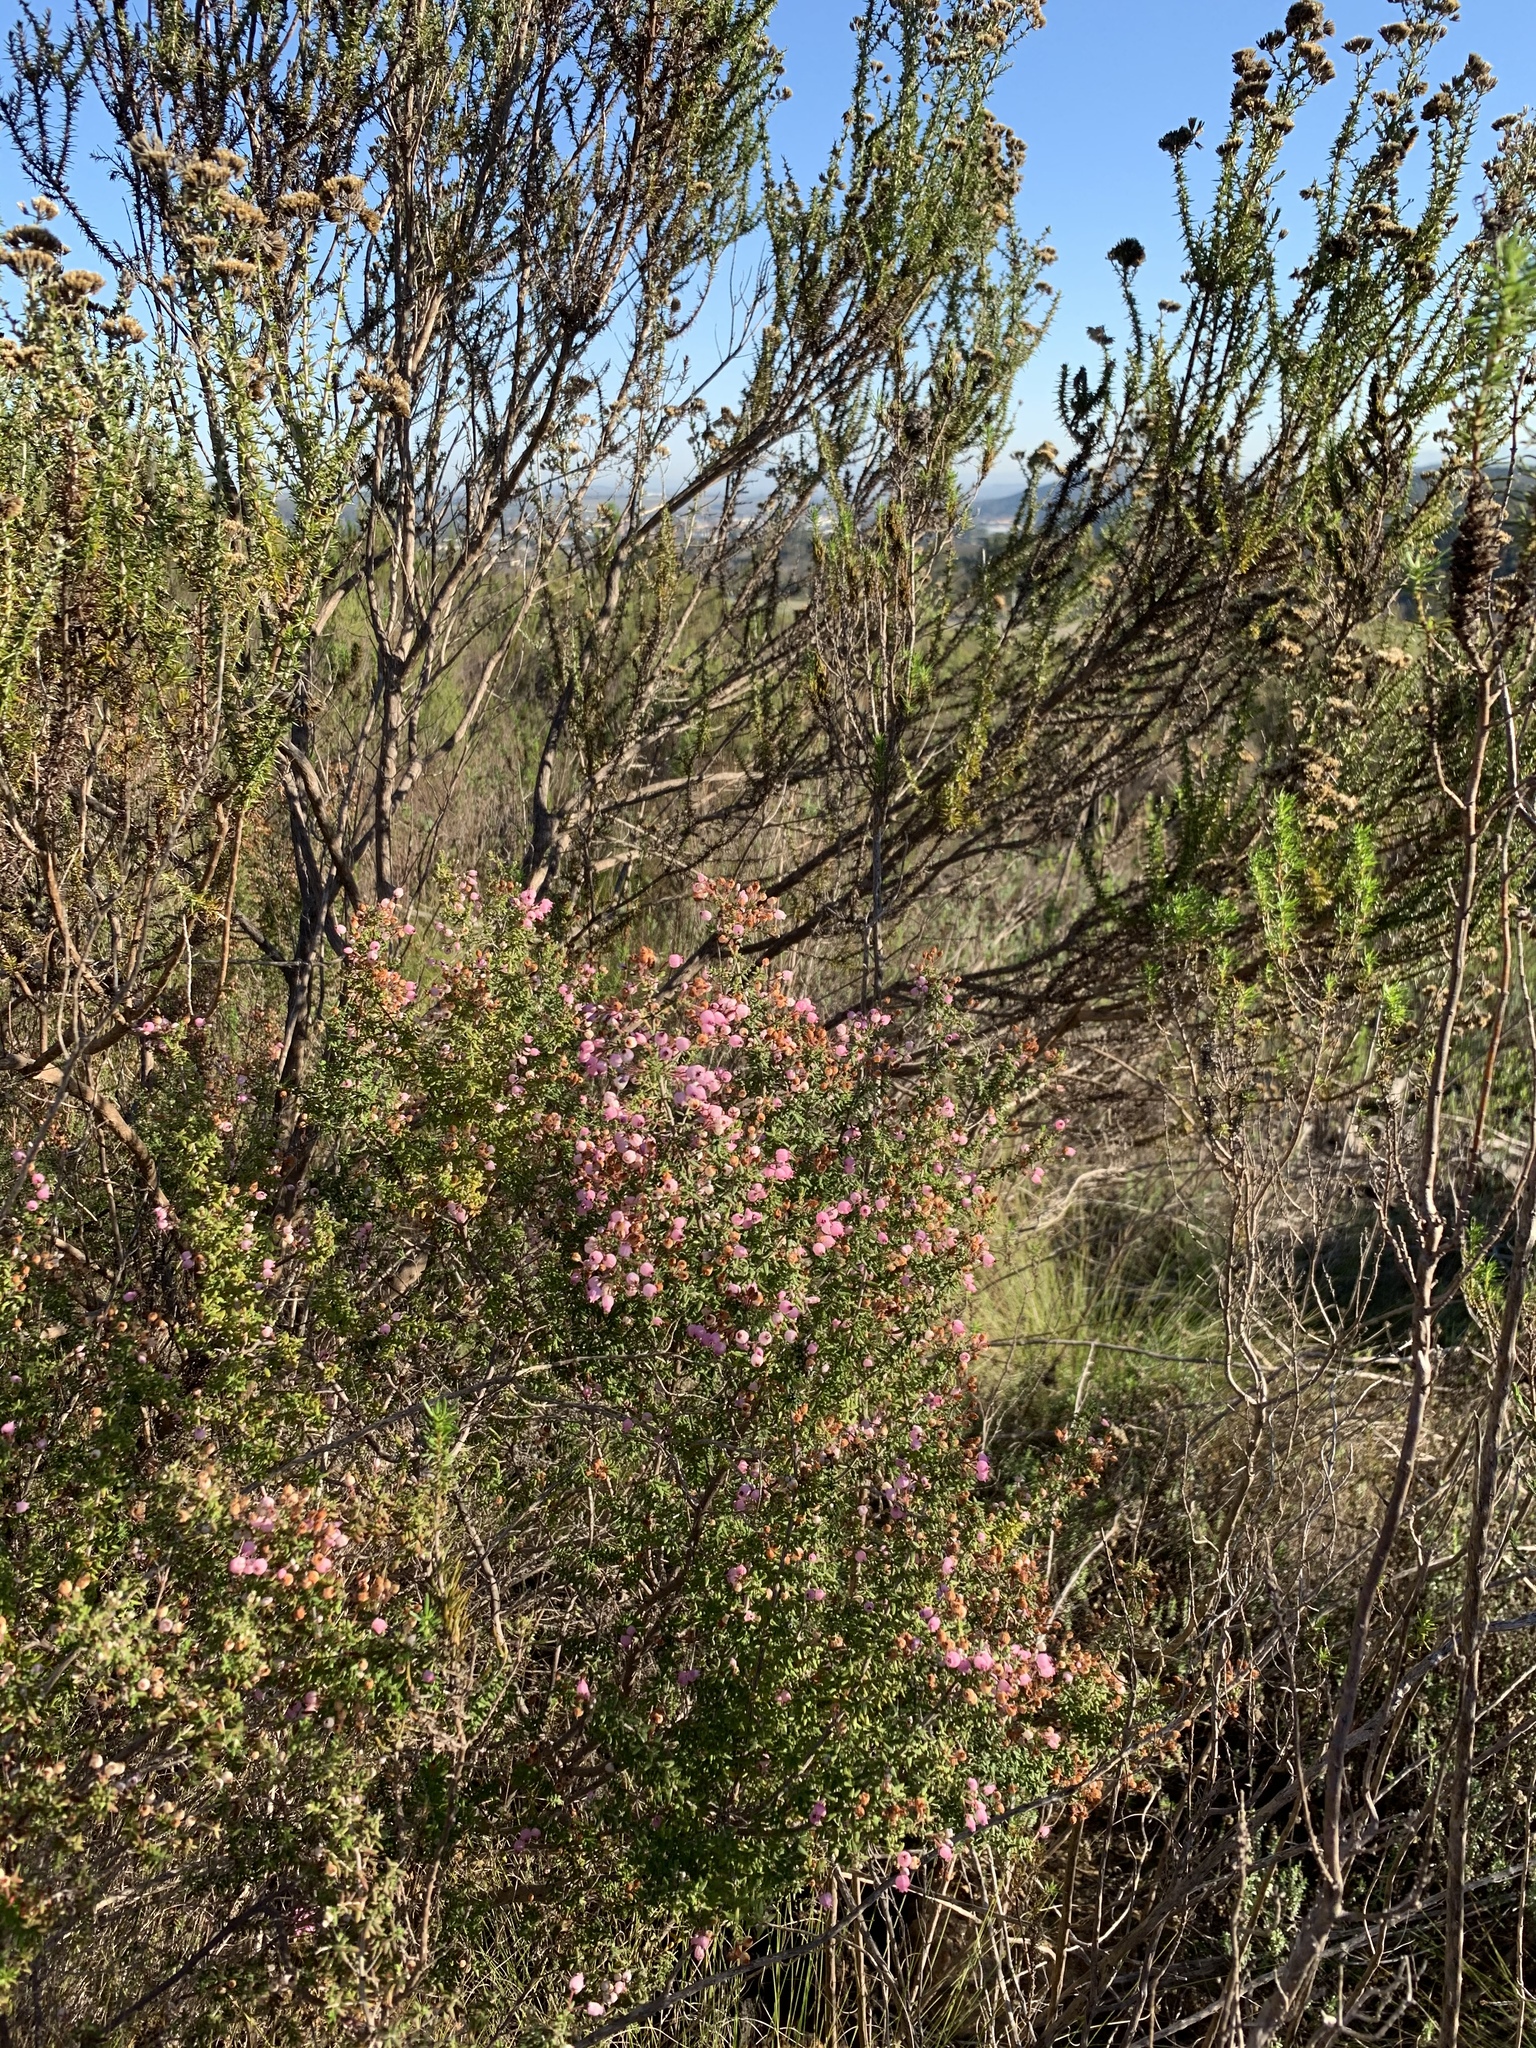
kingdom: Plantae
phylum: Tracheophyta
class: Magnoliopsida
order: Ericales
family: Ericaceae
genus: Erica
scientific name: Erica hirta
